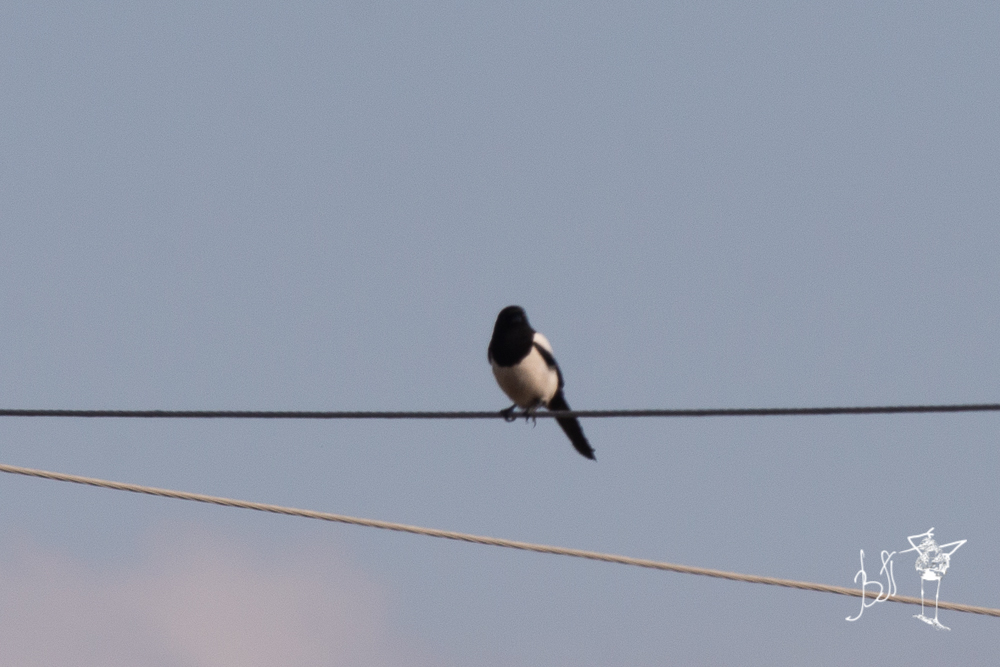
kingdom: Animalia
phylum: Chordata
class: Aves
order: Passeriformes
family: Corvidae
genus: Pica
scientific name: Pica pica
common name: Eurasian magpie
